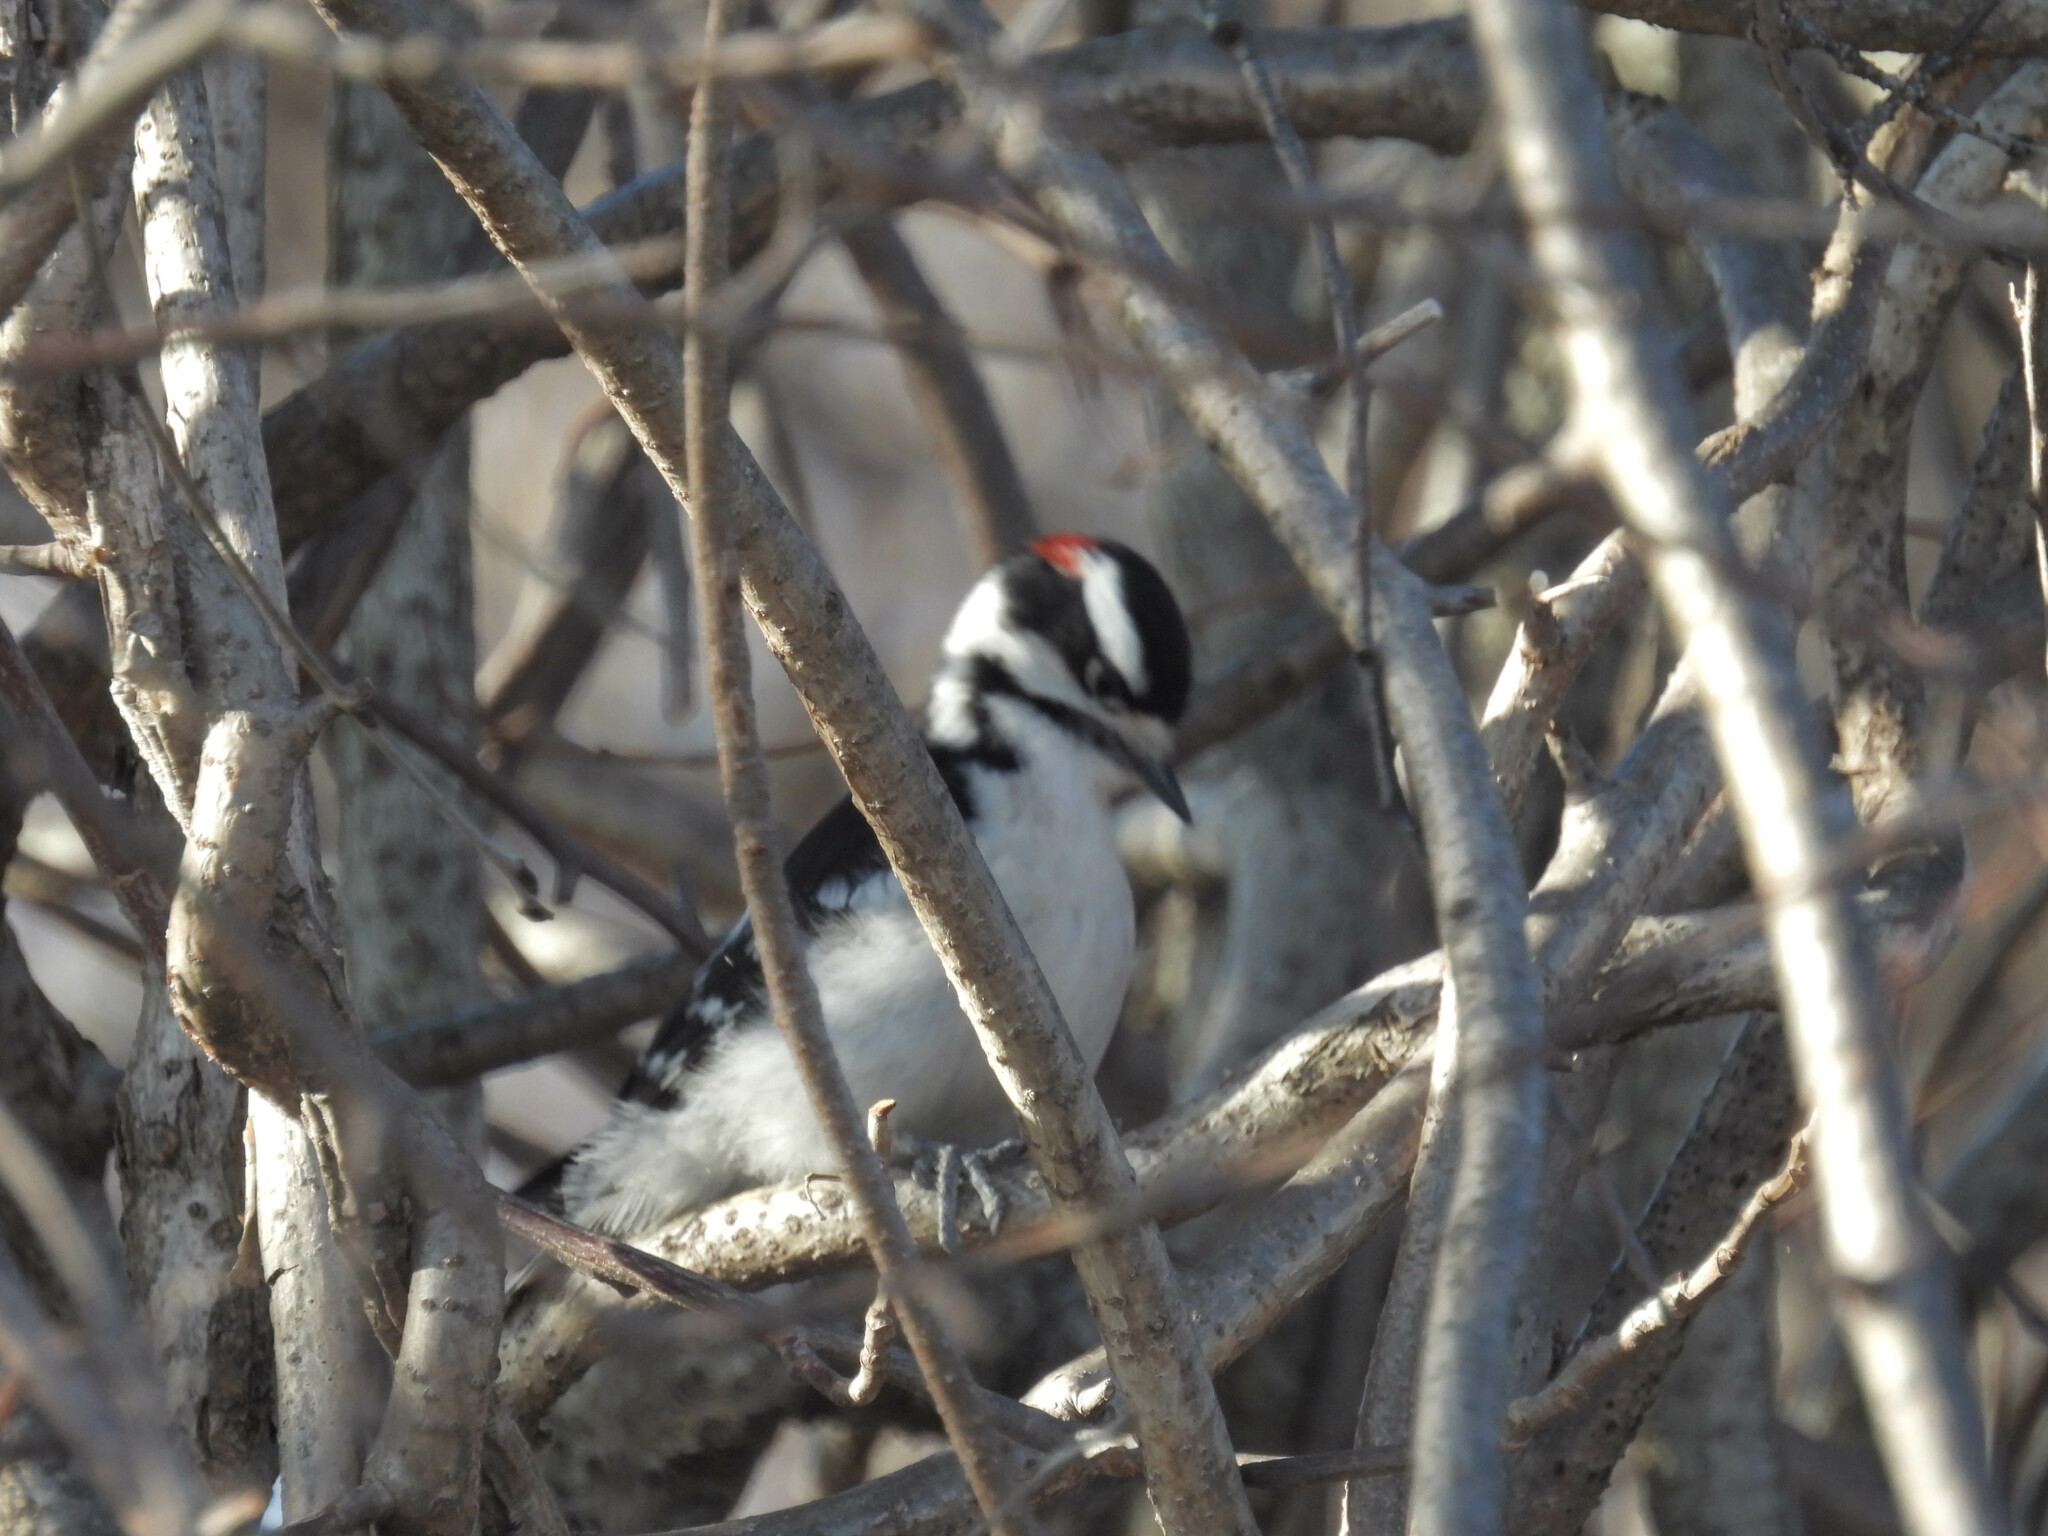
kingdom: Animalia
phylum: Chordata
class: Aves
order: Piciformes
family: Picidae
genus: Dryobates
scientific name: Dryobates pubescens
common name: Downy woodpecker
